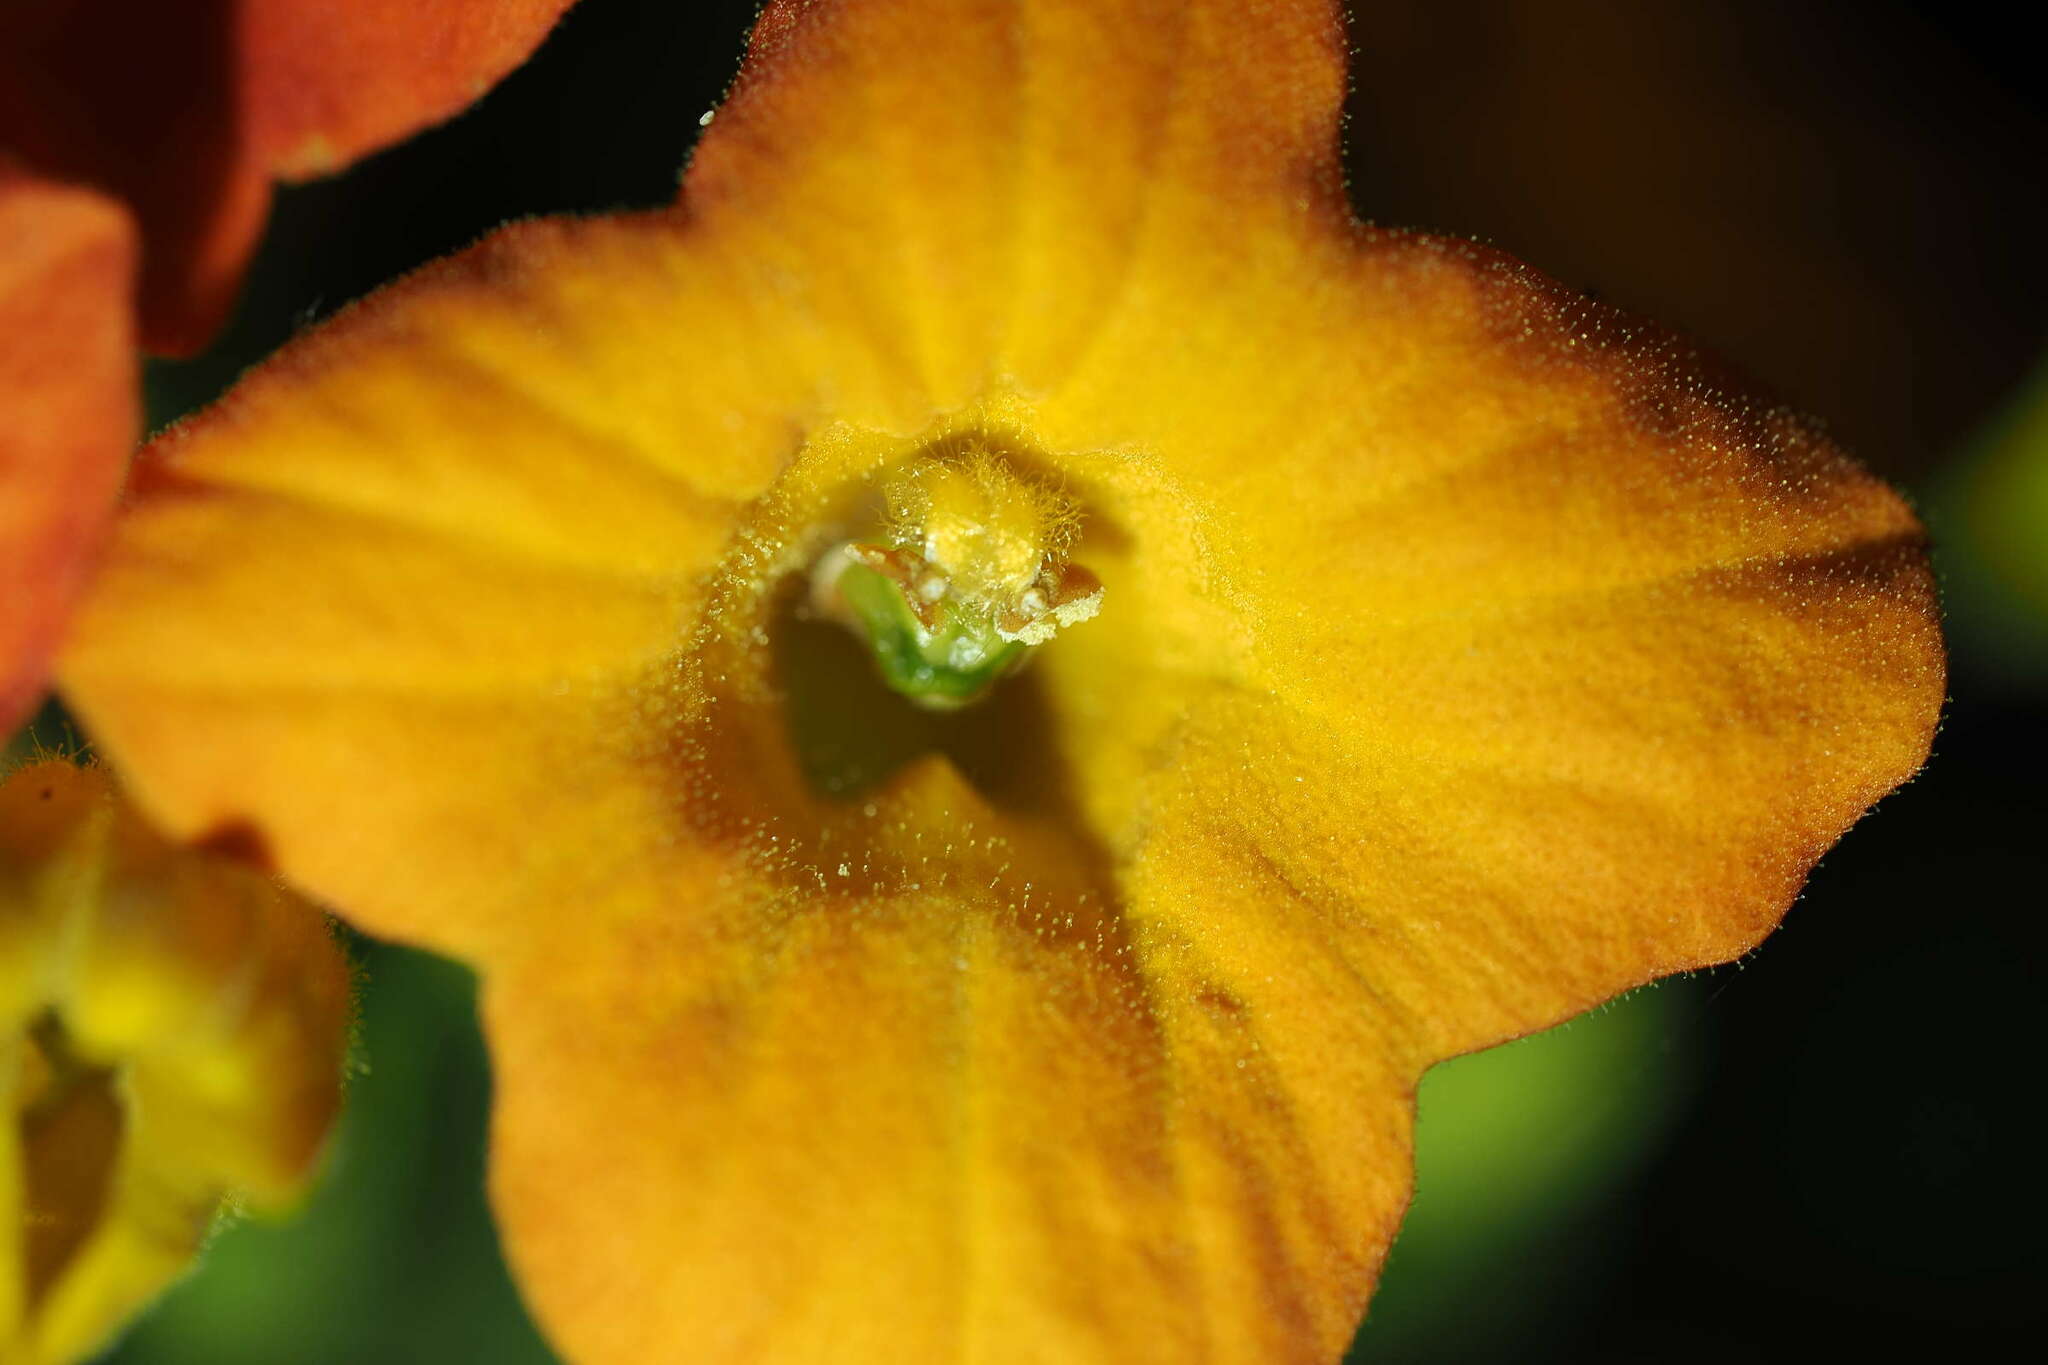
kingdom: Plantae
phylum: Tracheophyta
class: Magnoliopsida
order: Solanales
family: Solanaceae
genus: Streptosolen
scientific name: Streptosolen jamesonii
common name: Marmalade bush
